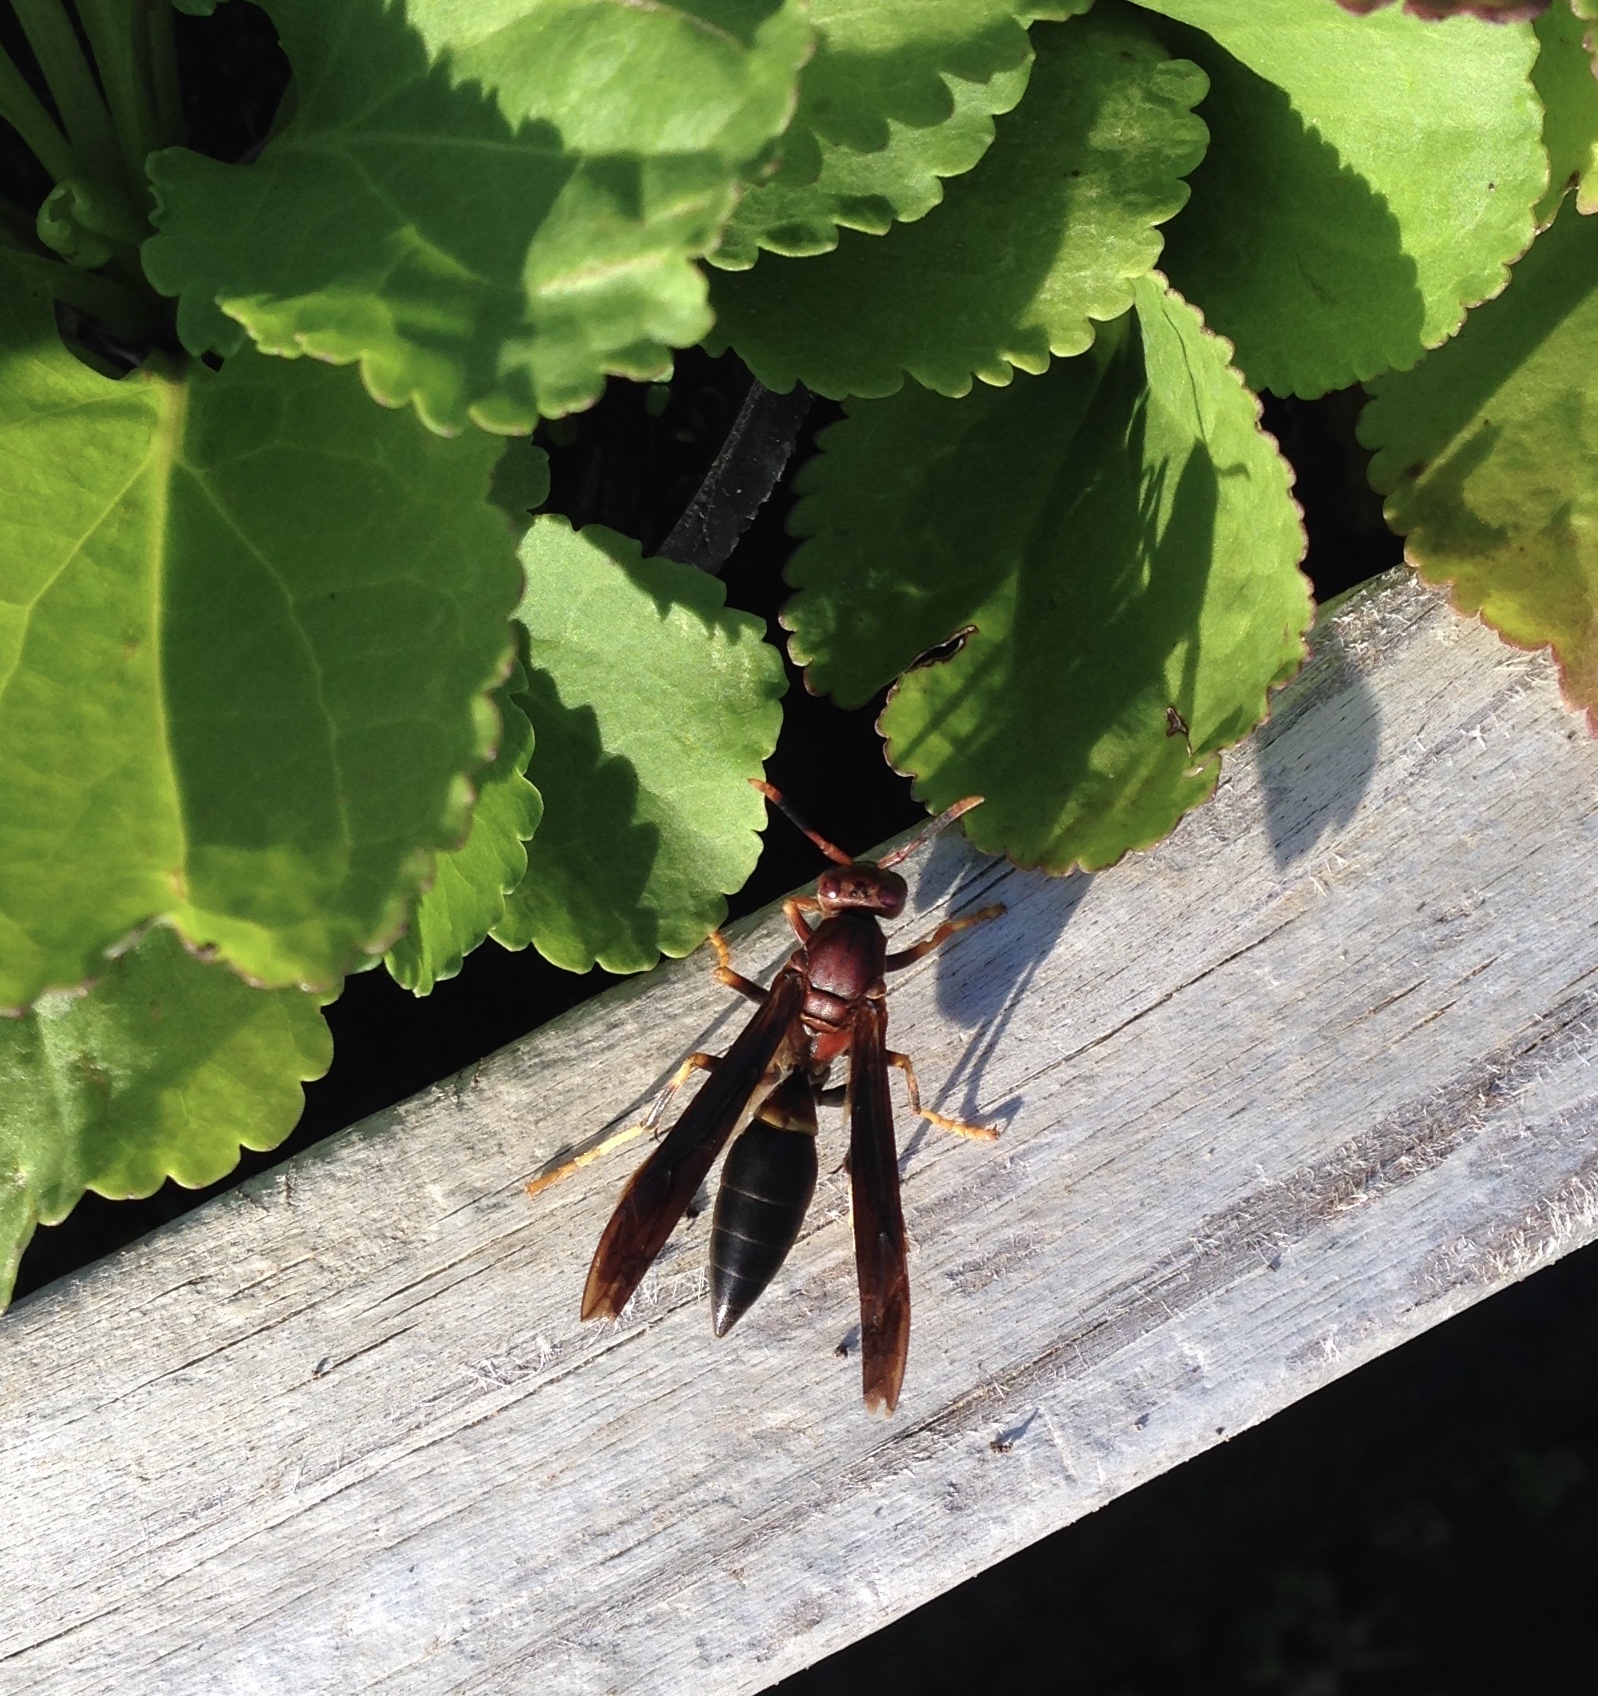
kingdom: Animalia
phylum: Arthropoda
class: Insecta
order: Hymenoptera
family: Eumenidae
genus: Polistes
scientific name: Polistes annularis
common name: Ringed paper wasp
